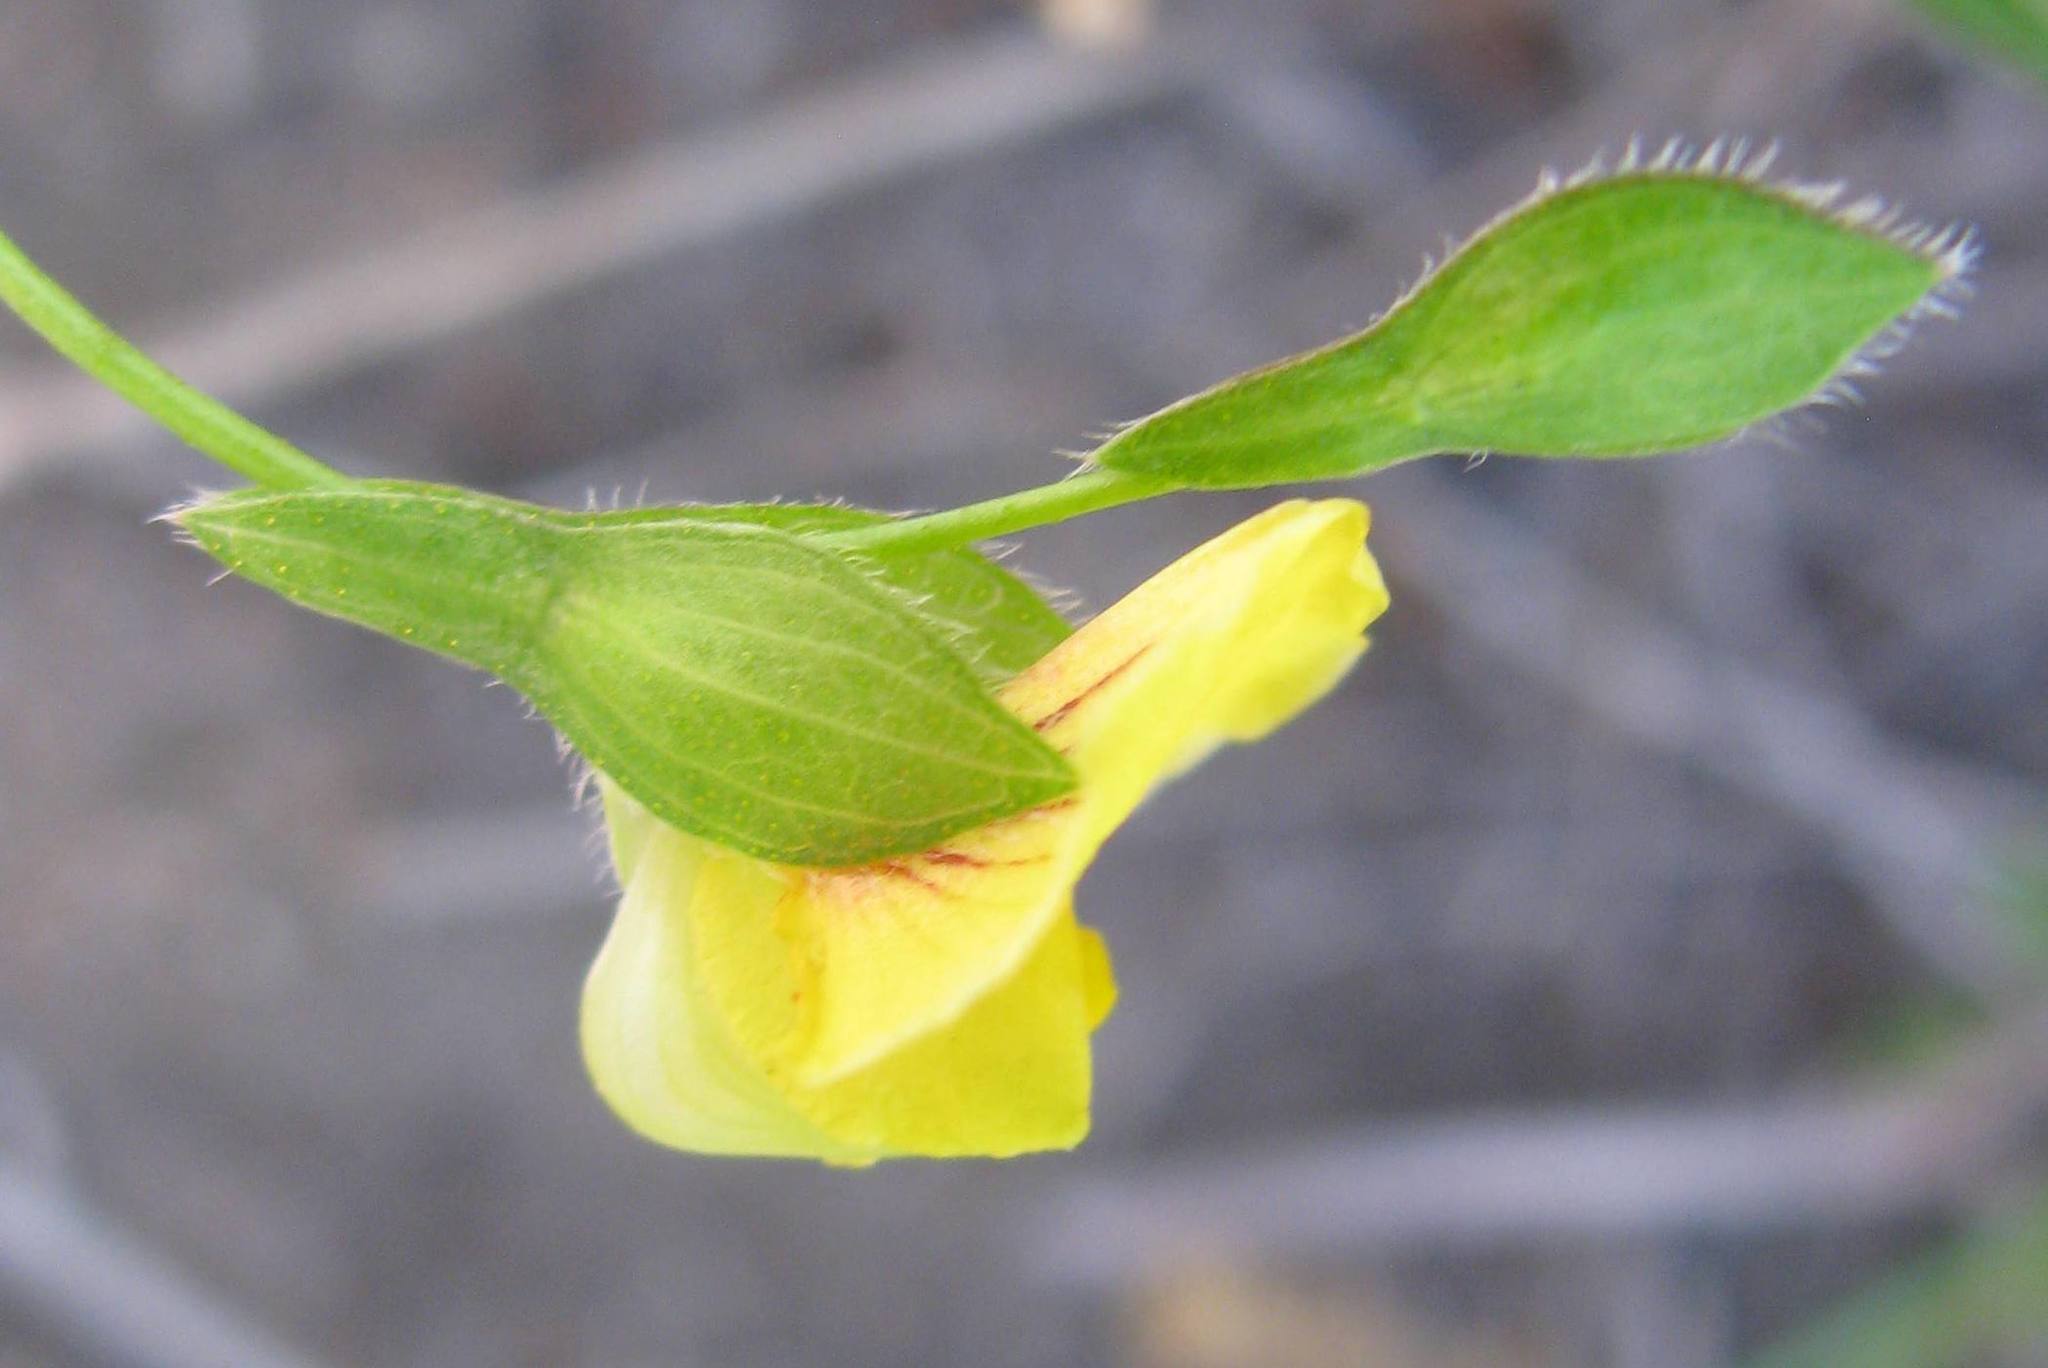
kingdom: Plantae
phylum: Tracheophyta
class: Magnoliopsida
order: Fabales
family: Fabaceae
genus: Zornia
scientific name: Zornia capensis
